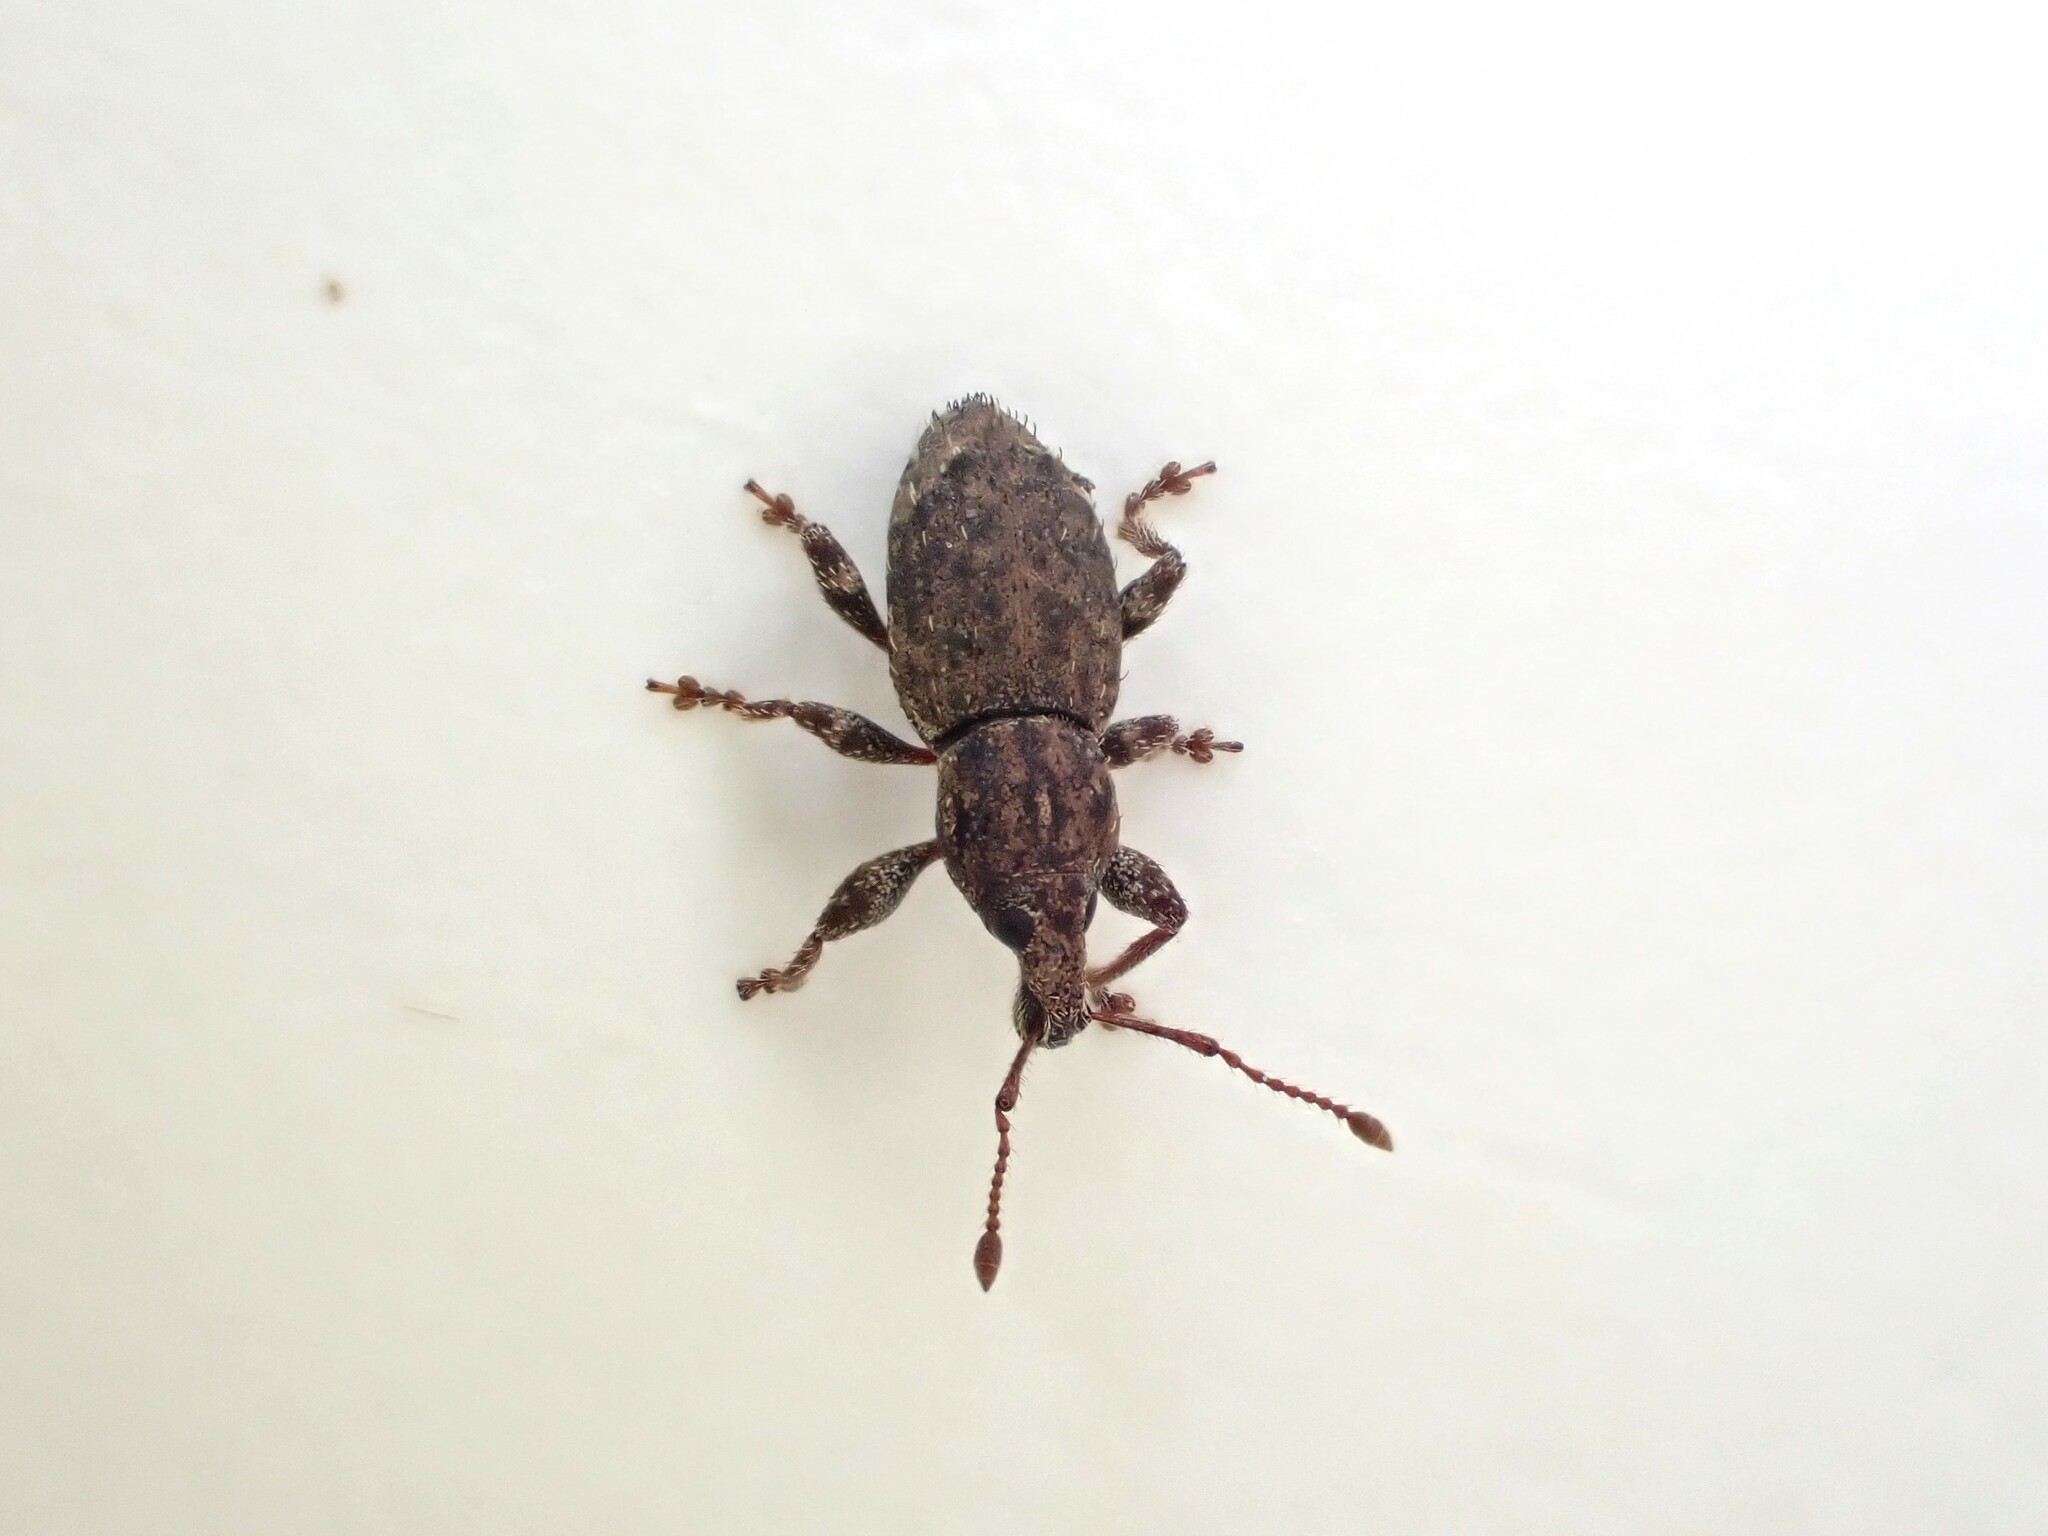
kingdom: Animalia
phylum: Arthropoda
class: Insecta
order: Coleoptera
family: Curculionidae
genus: Chalepistes
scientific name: Chalepistes compressus
